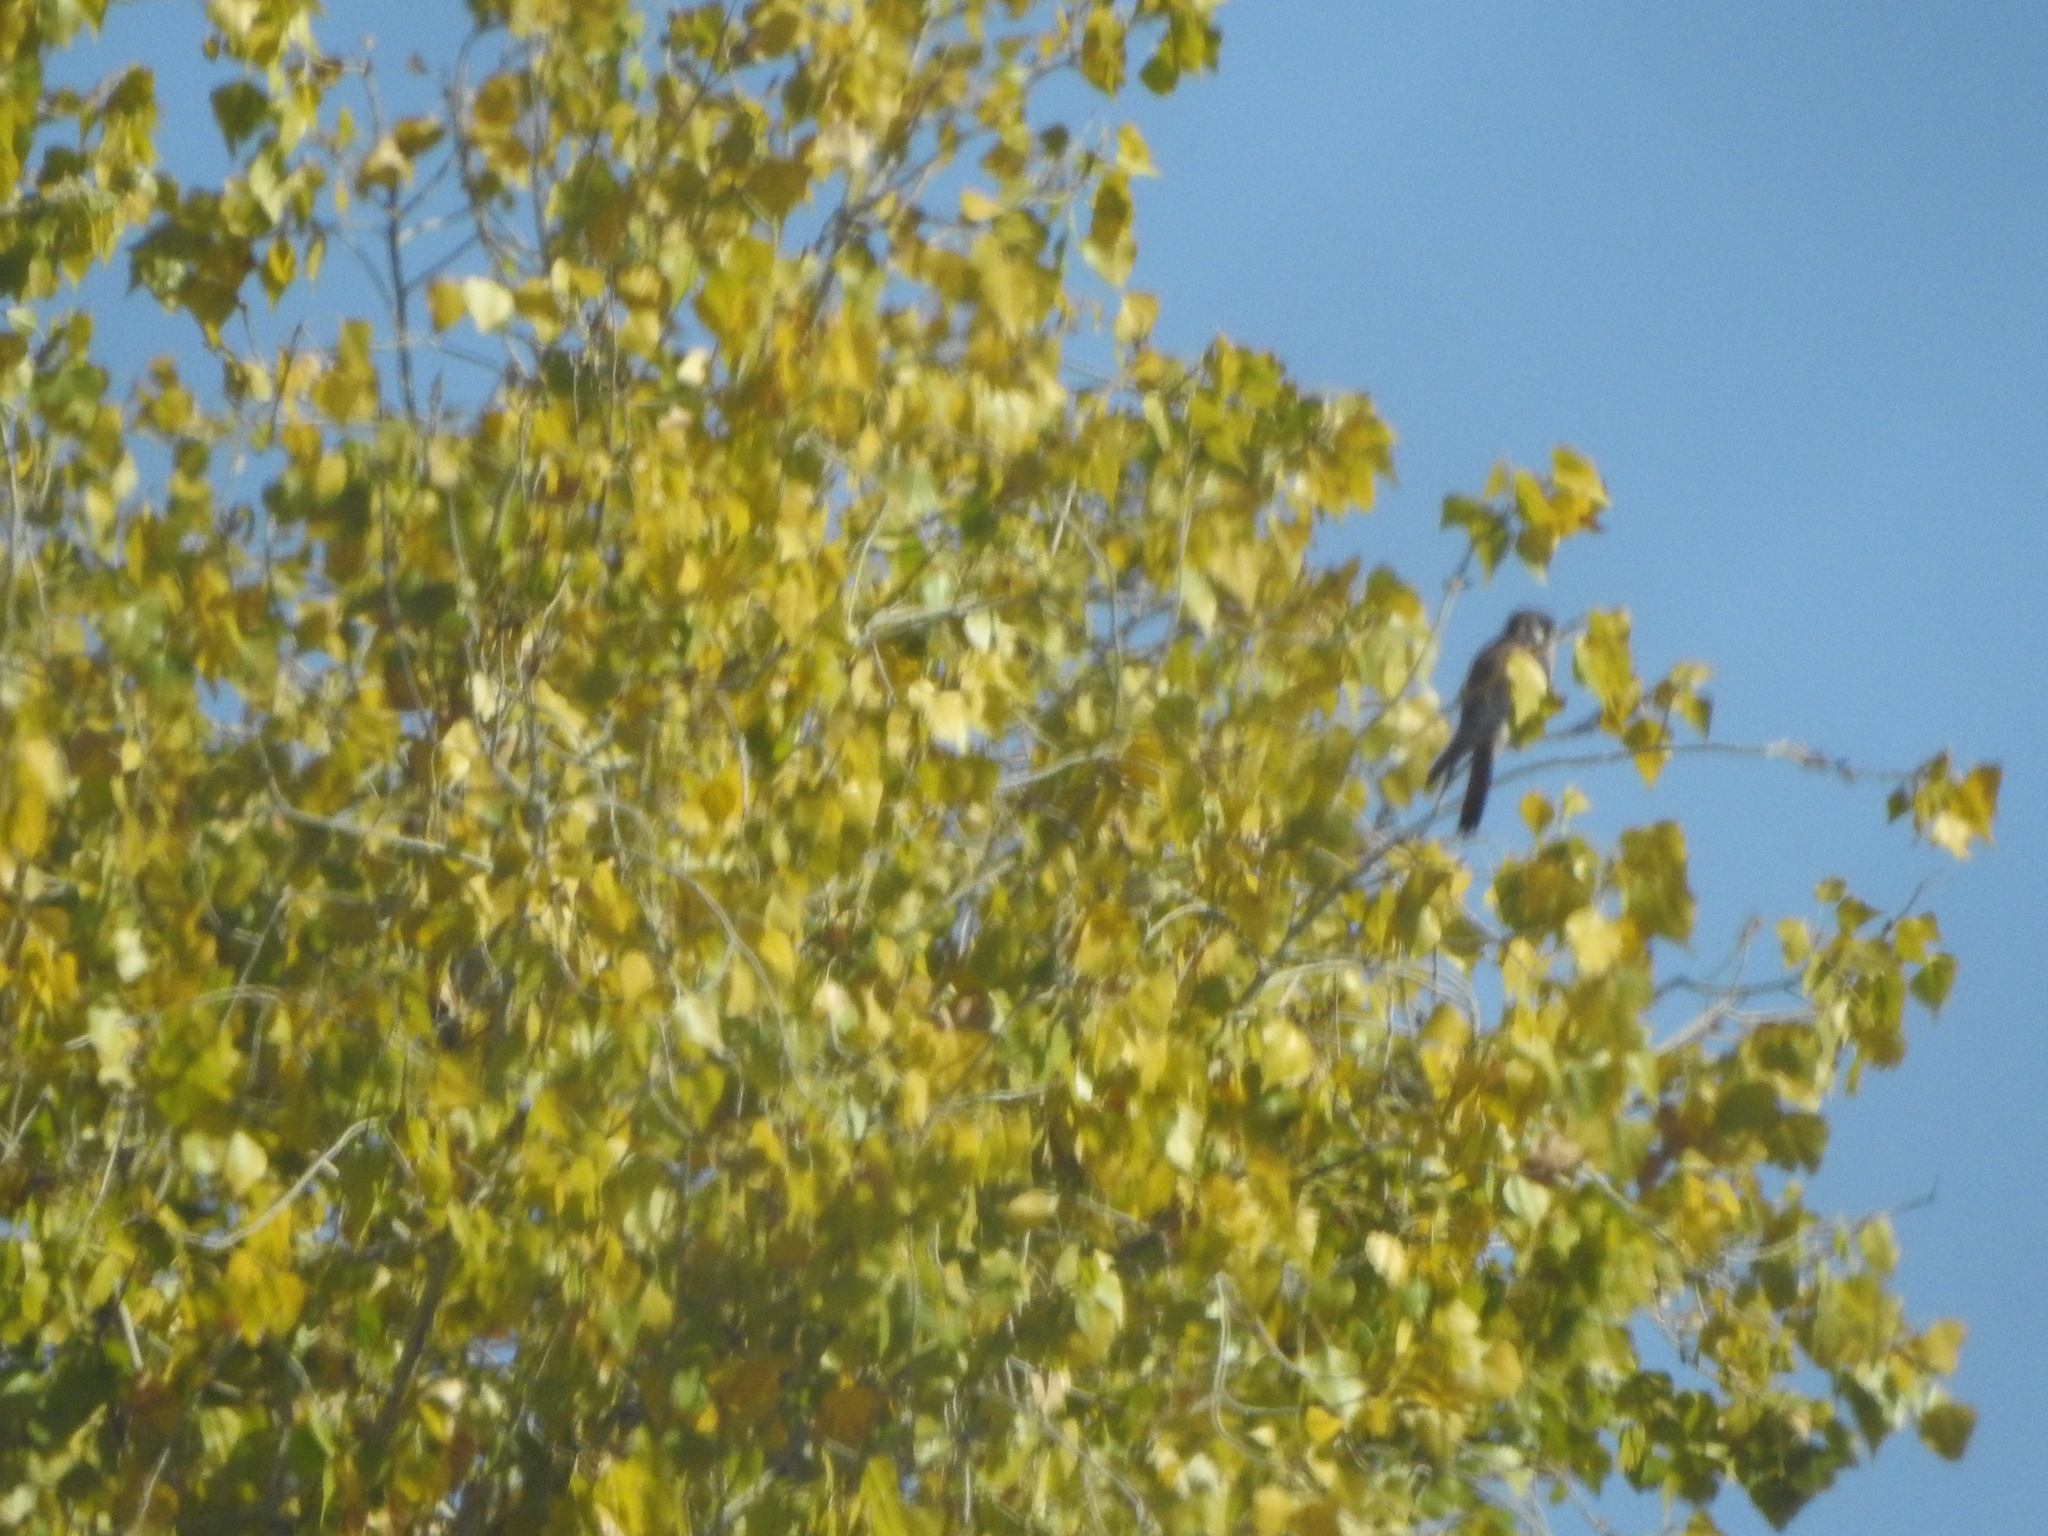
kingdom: Animalia
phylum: Chordata
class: Aves
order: Falconiformes
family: Falconidae
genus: Falco
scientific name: Falco sparverius
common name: American kestrel
